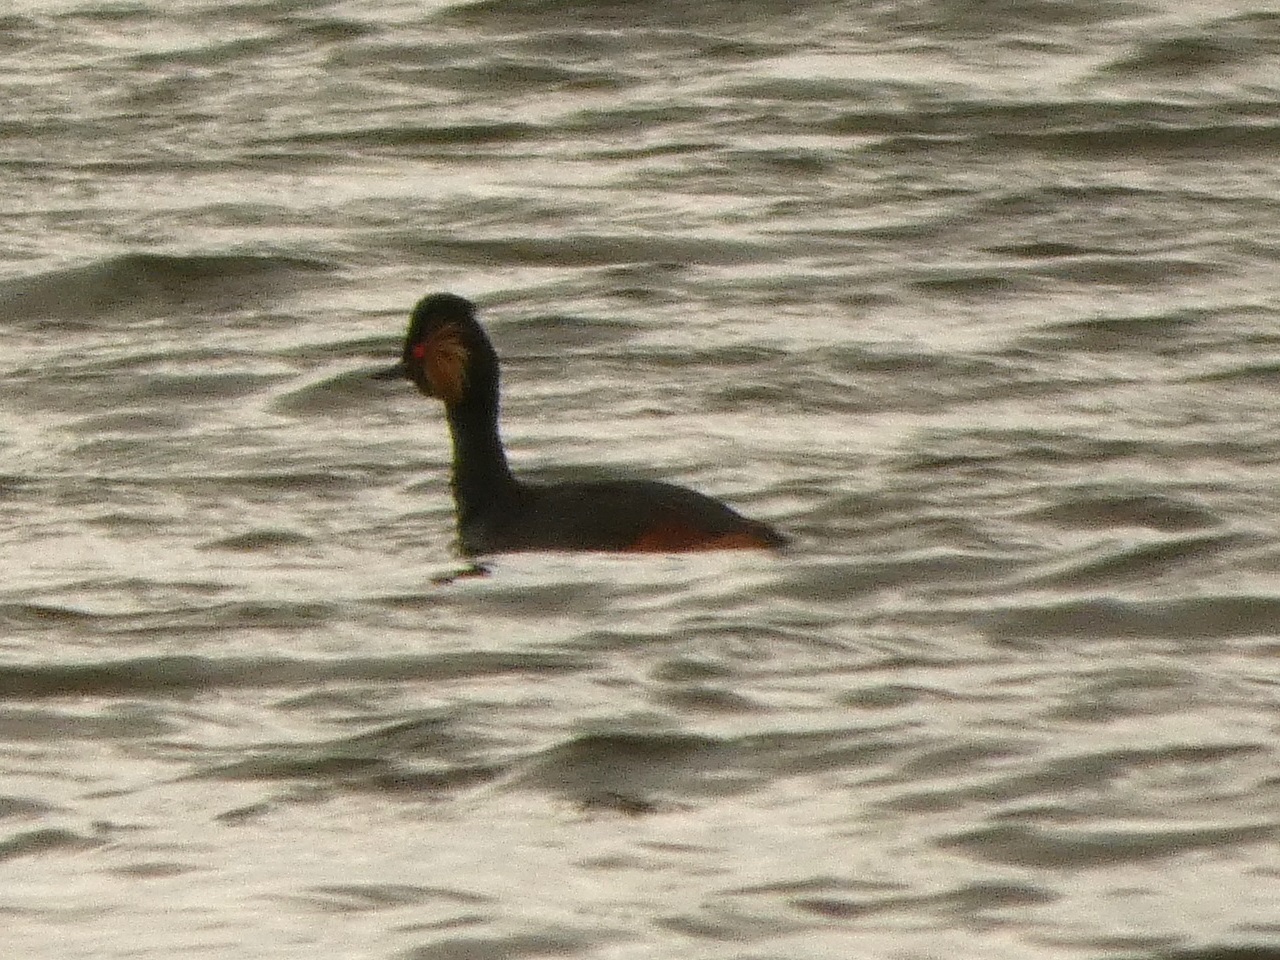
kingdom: Animalia
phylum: Chordata
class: Aves
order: Podicipediformes
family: Podicipedidae
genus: Podiceps
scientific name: Podiceps nigricollis
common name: Black-necked grebe
